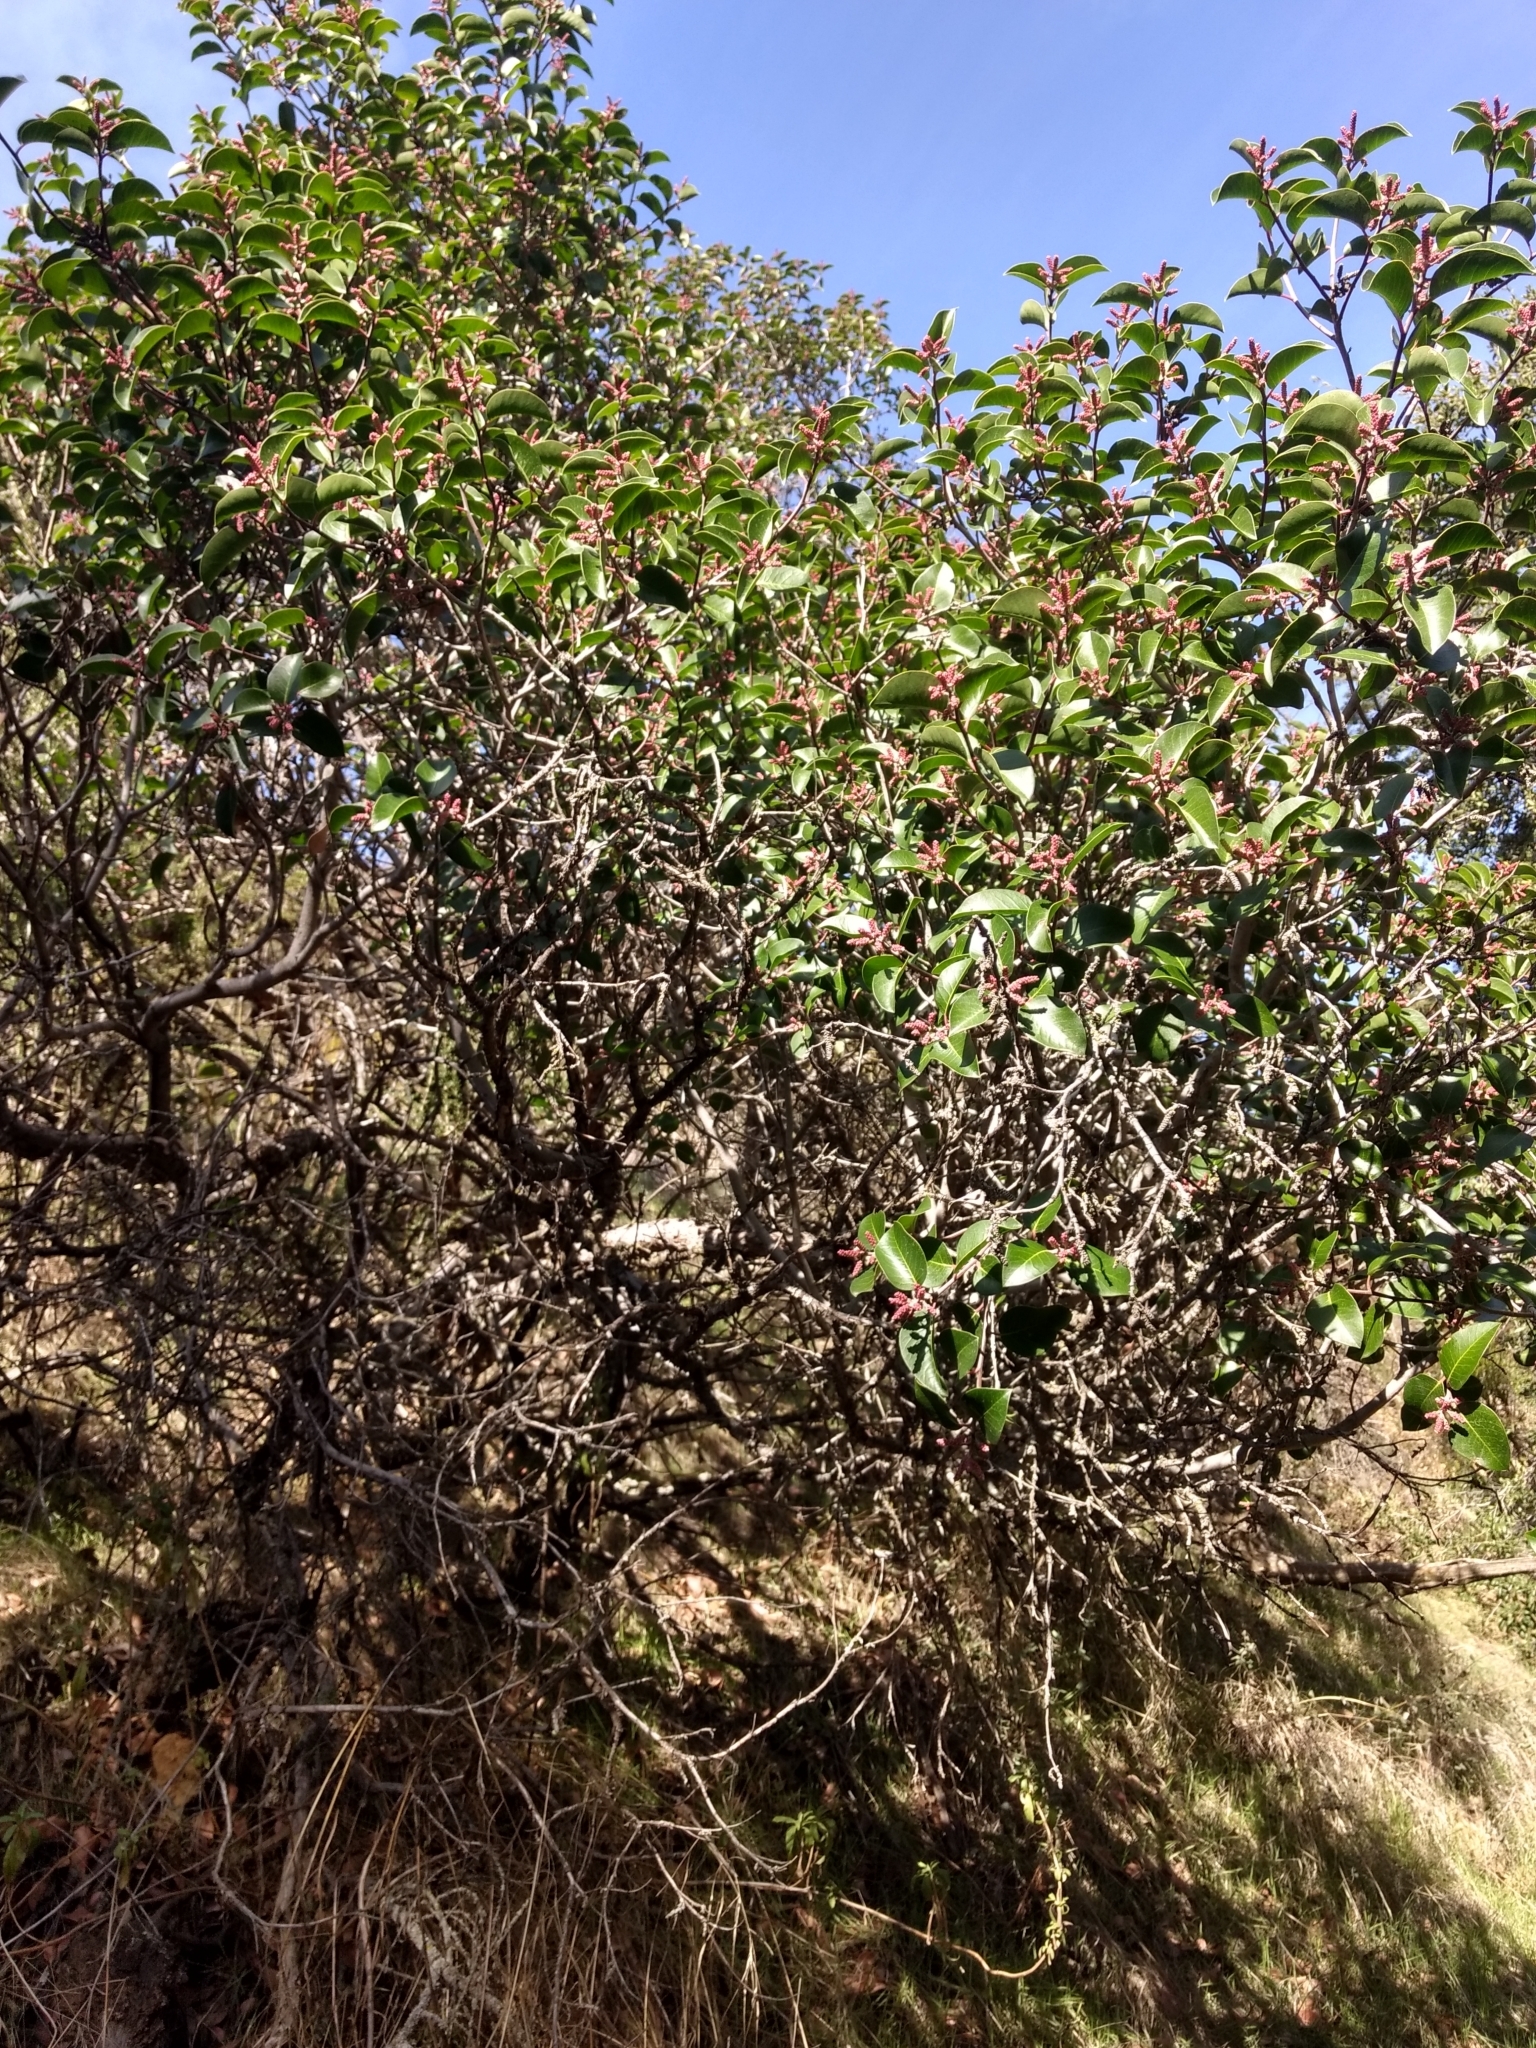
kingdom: Plantae
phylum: Tracheophyta
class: Magnoliopsida
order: Sapindales
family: Anacardiaceae
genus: Rhus
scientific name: Rhus ovata
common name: Sugar sumac
